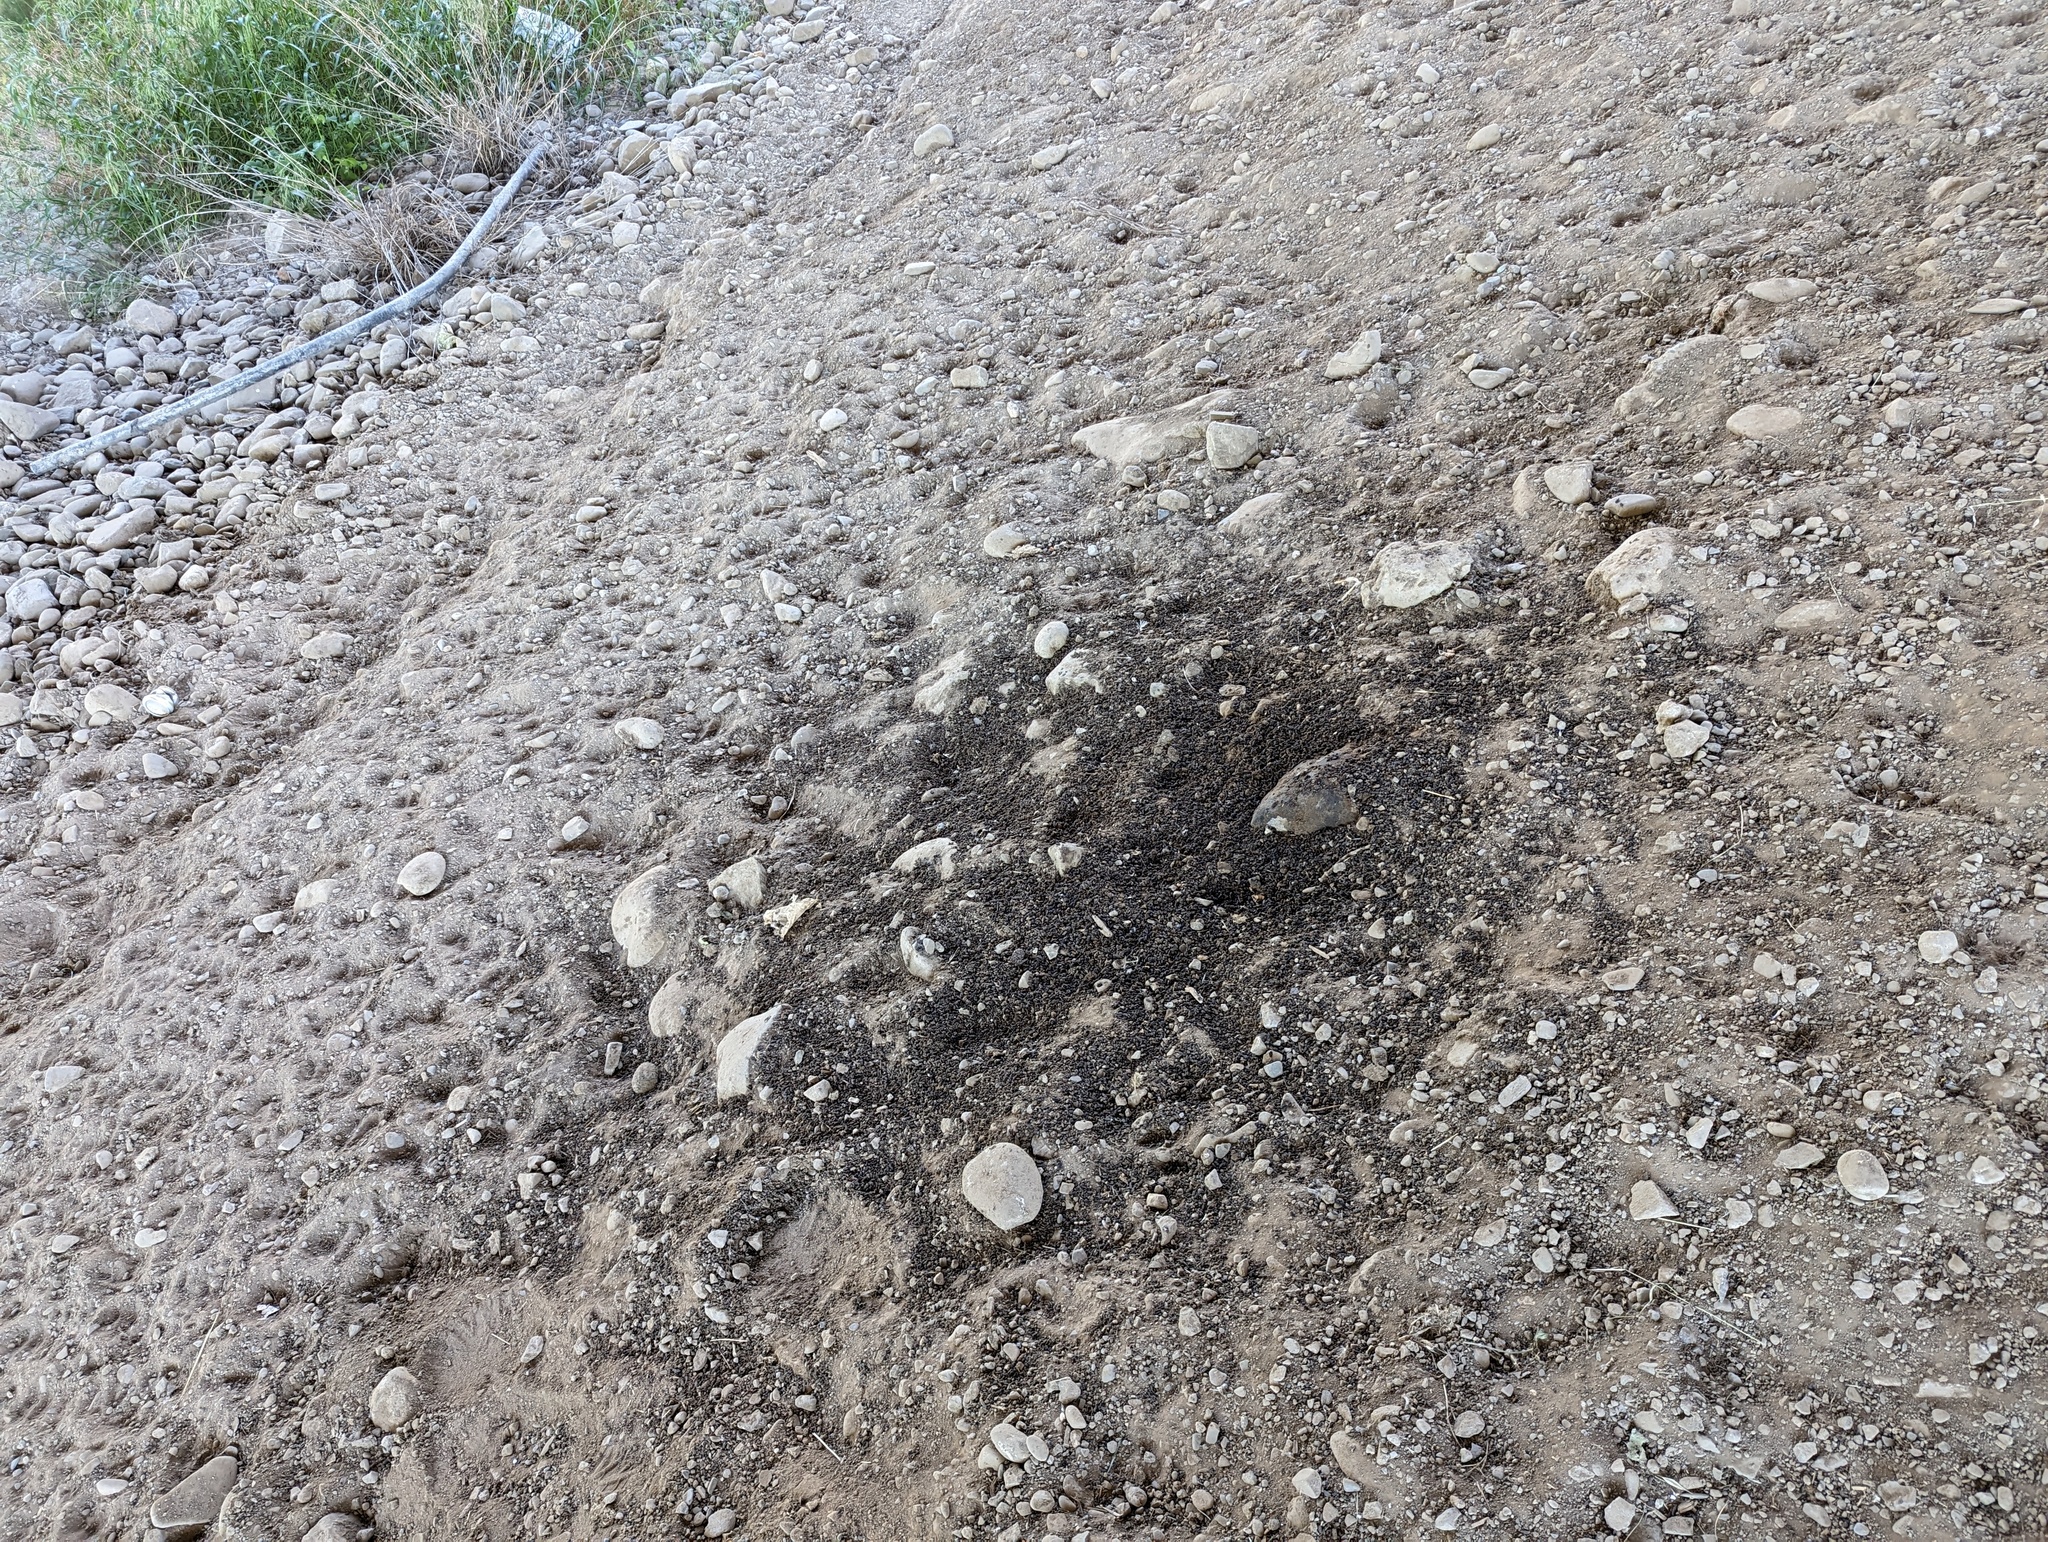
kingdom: Animalia
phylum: Chordata
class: Mammalia
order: Chiroptera
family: Vespertilionidae
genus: Antrozous
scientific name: Antrozous pallidus
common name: Pallid bat
